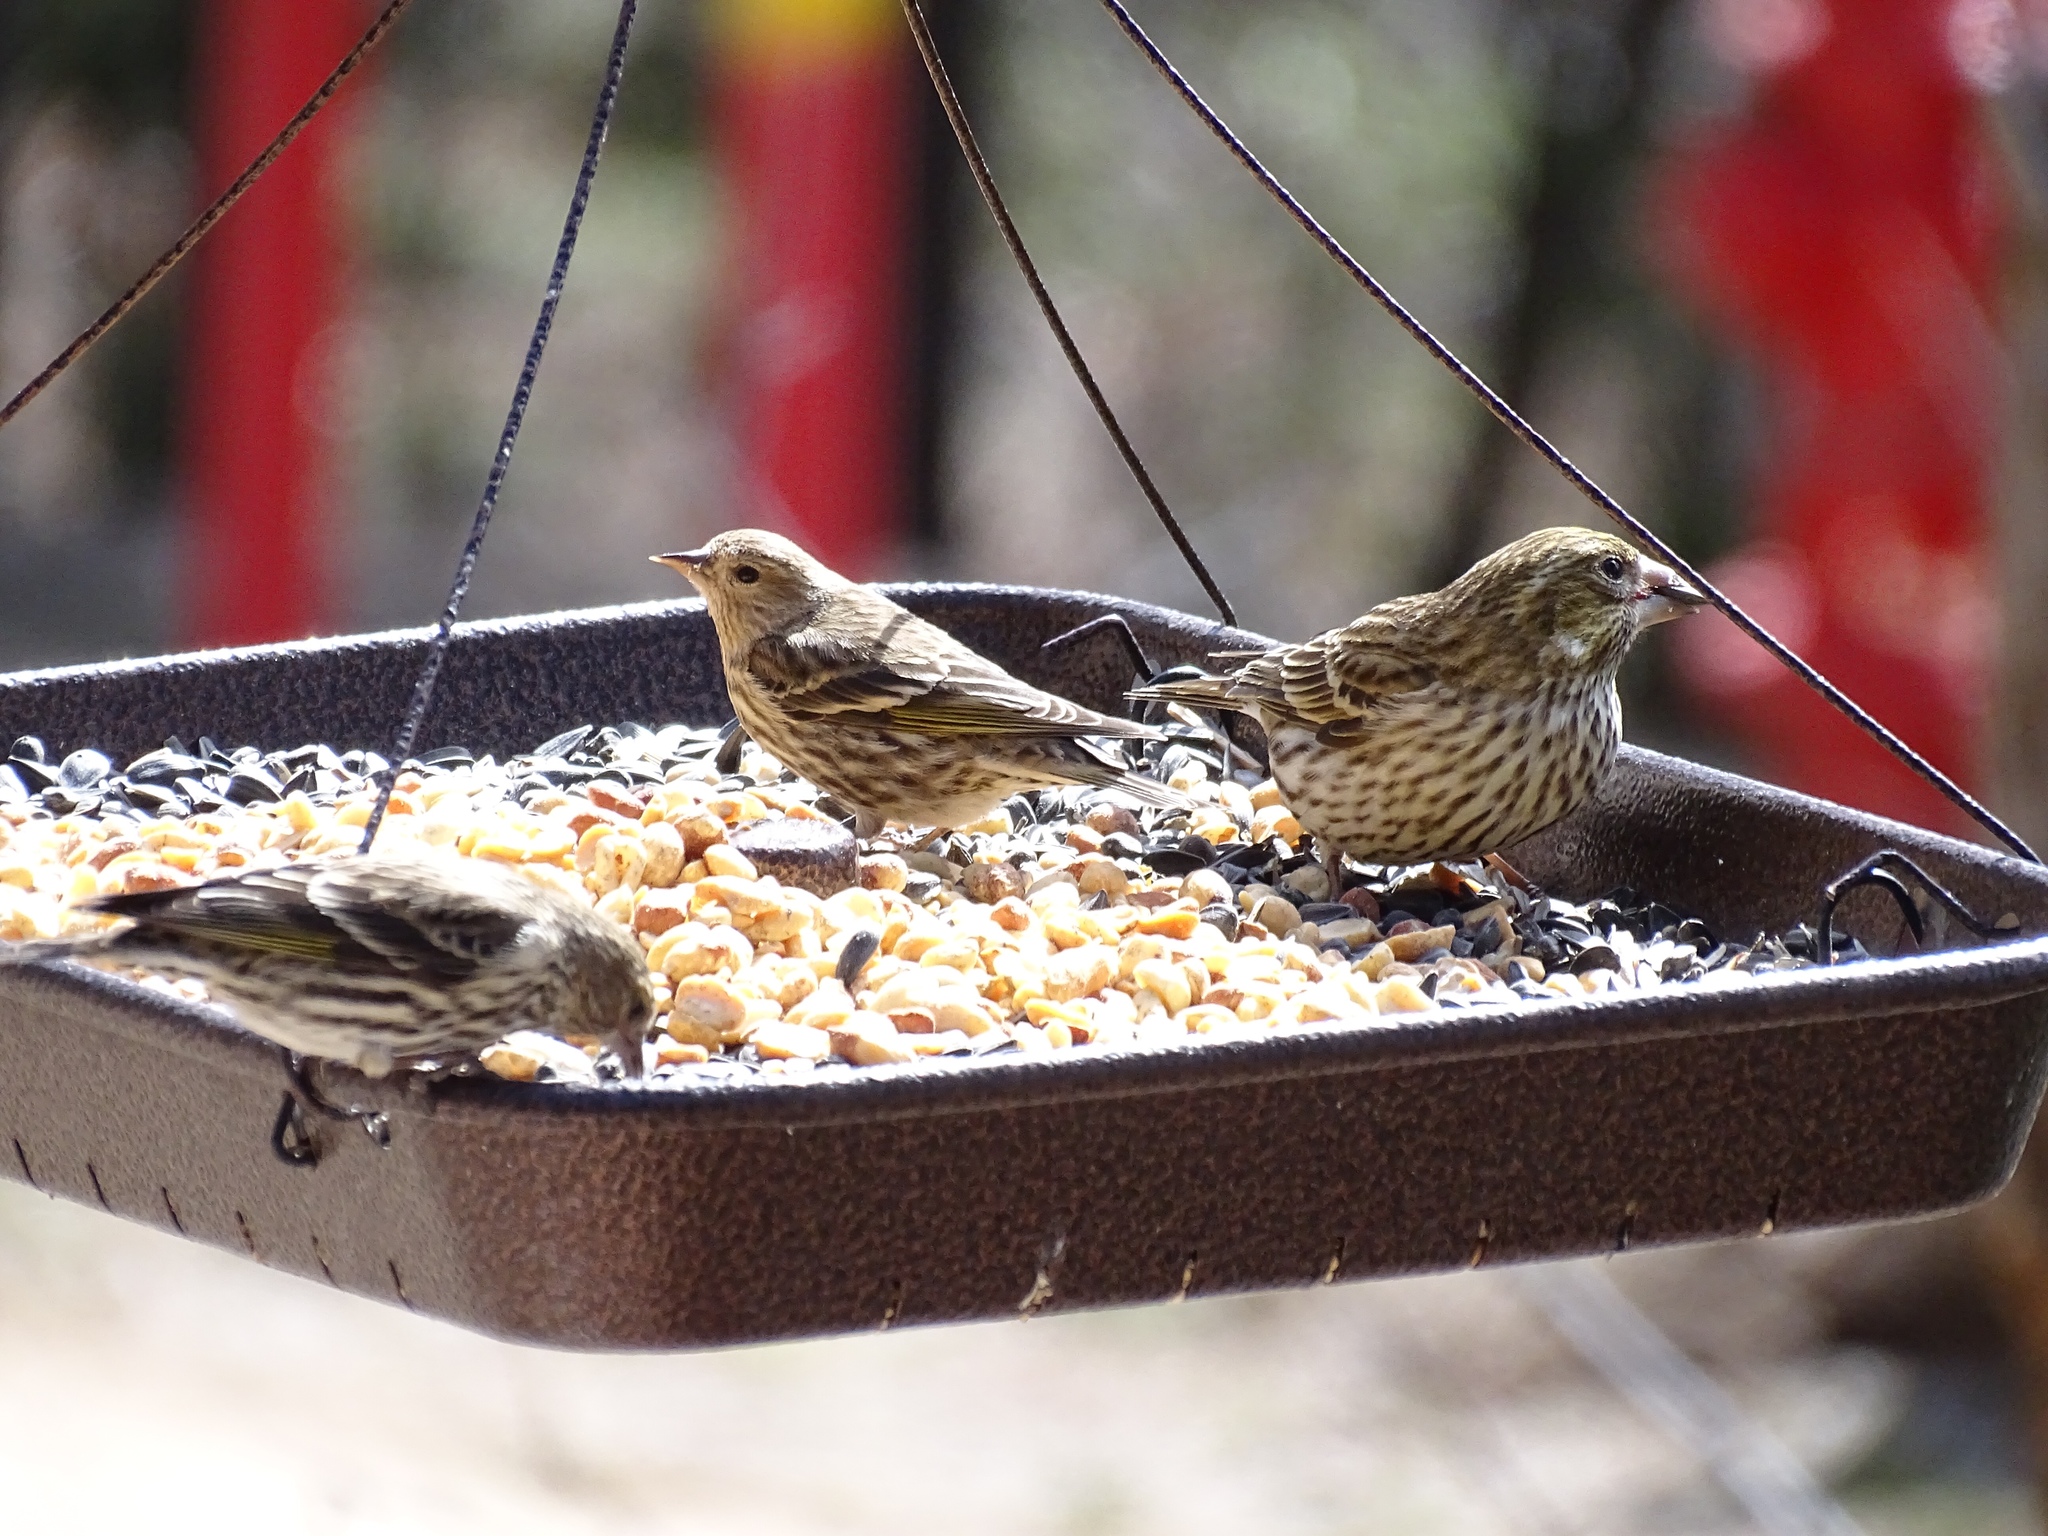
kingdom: Animalia
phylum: Chordata
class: Aves
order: Passeriformes
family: Fringillidae
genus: Haemorhous
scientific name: Haemorhous cassinii
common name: Cassin's finch
